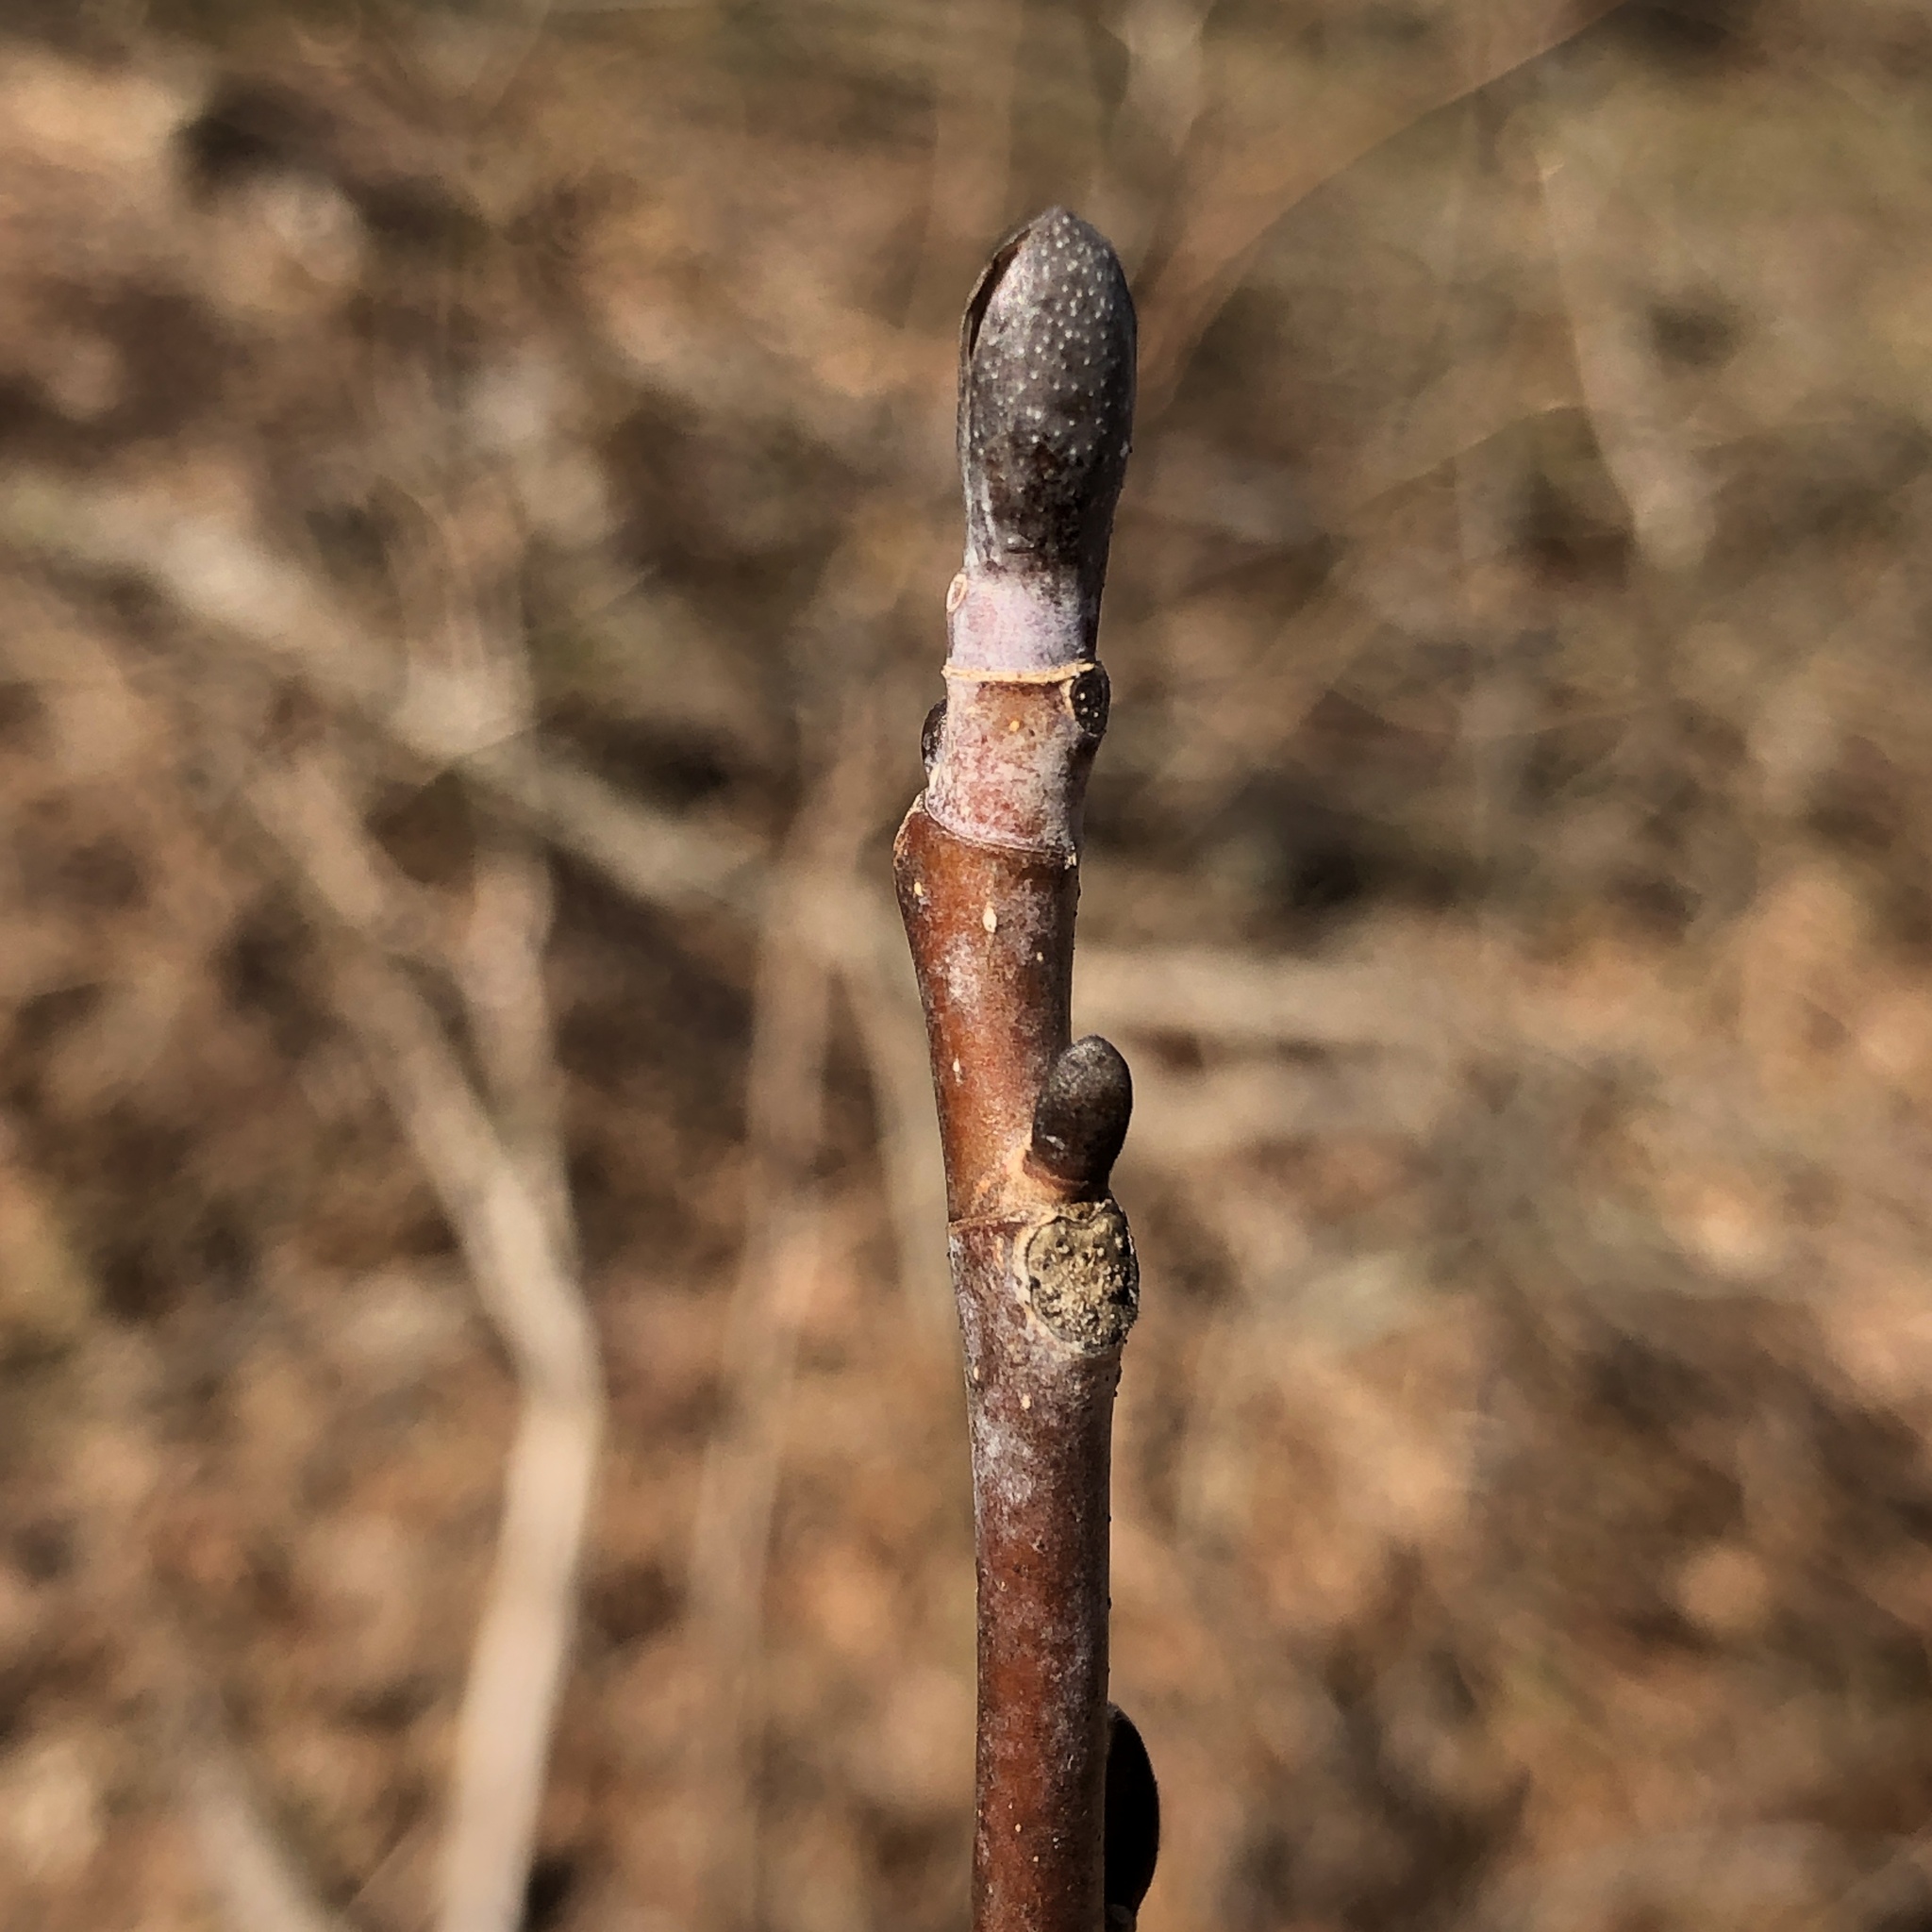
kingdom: Plantae
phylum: Tracheophyta
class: Magnoliopsida
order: Magnoliales
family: Magnoliaceae
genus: Liriodendron
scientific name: Liriodendron tulipifera
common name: Tulip tree
